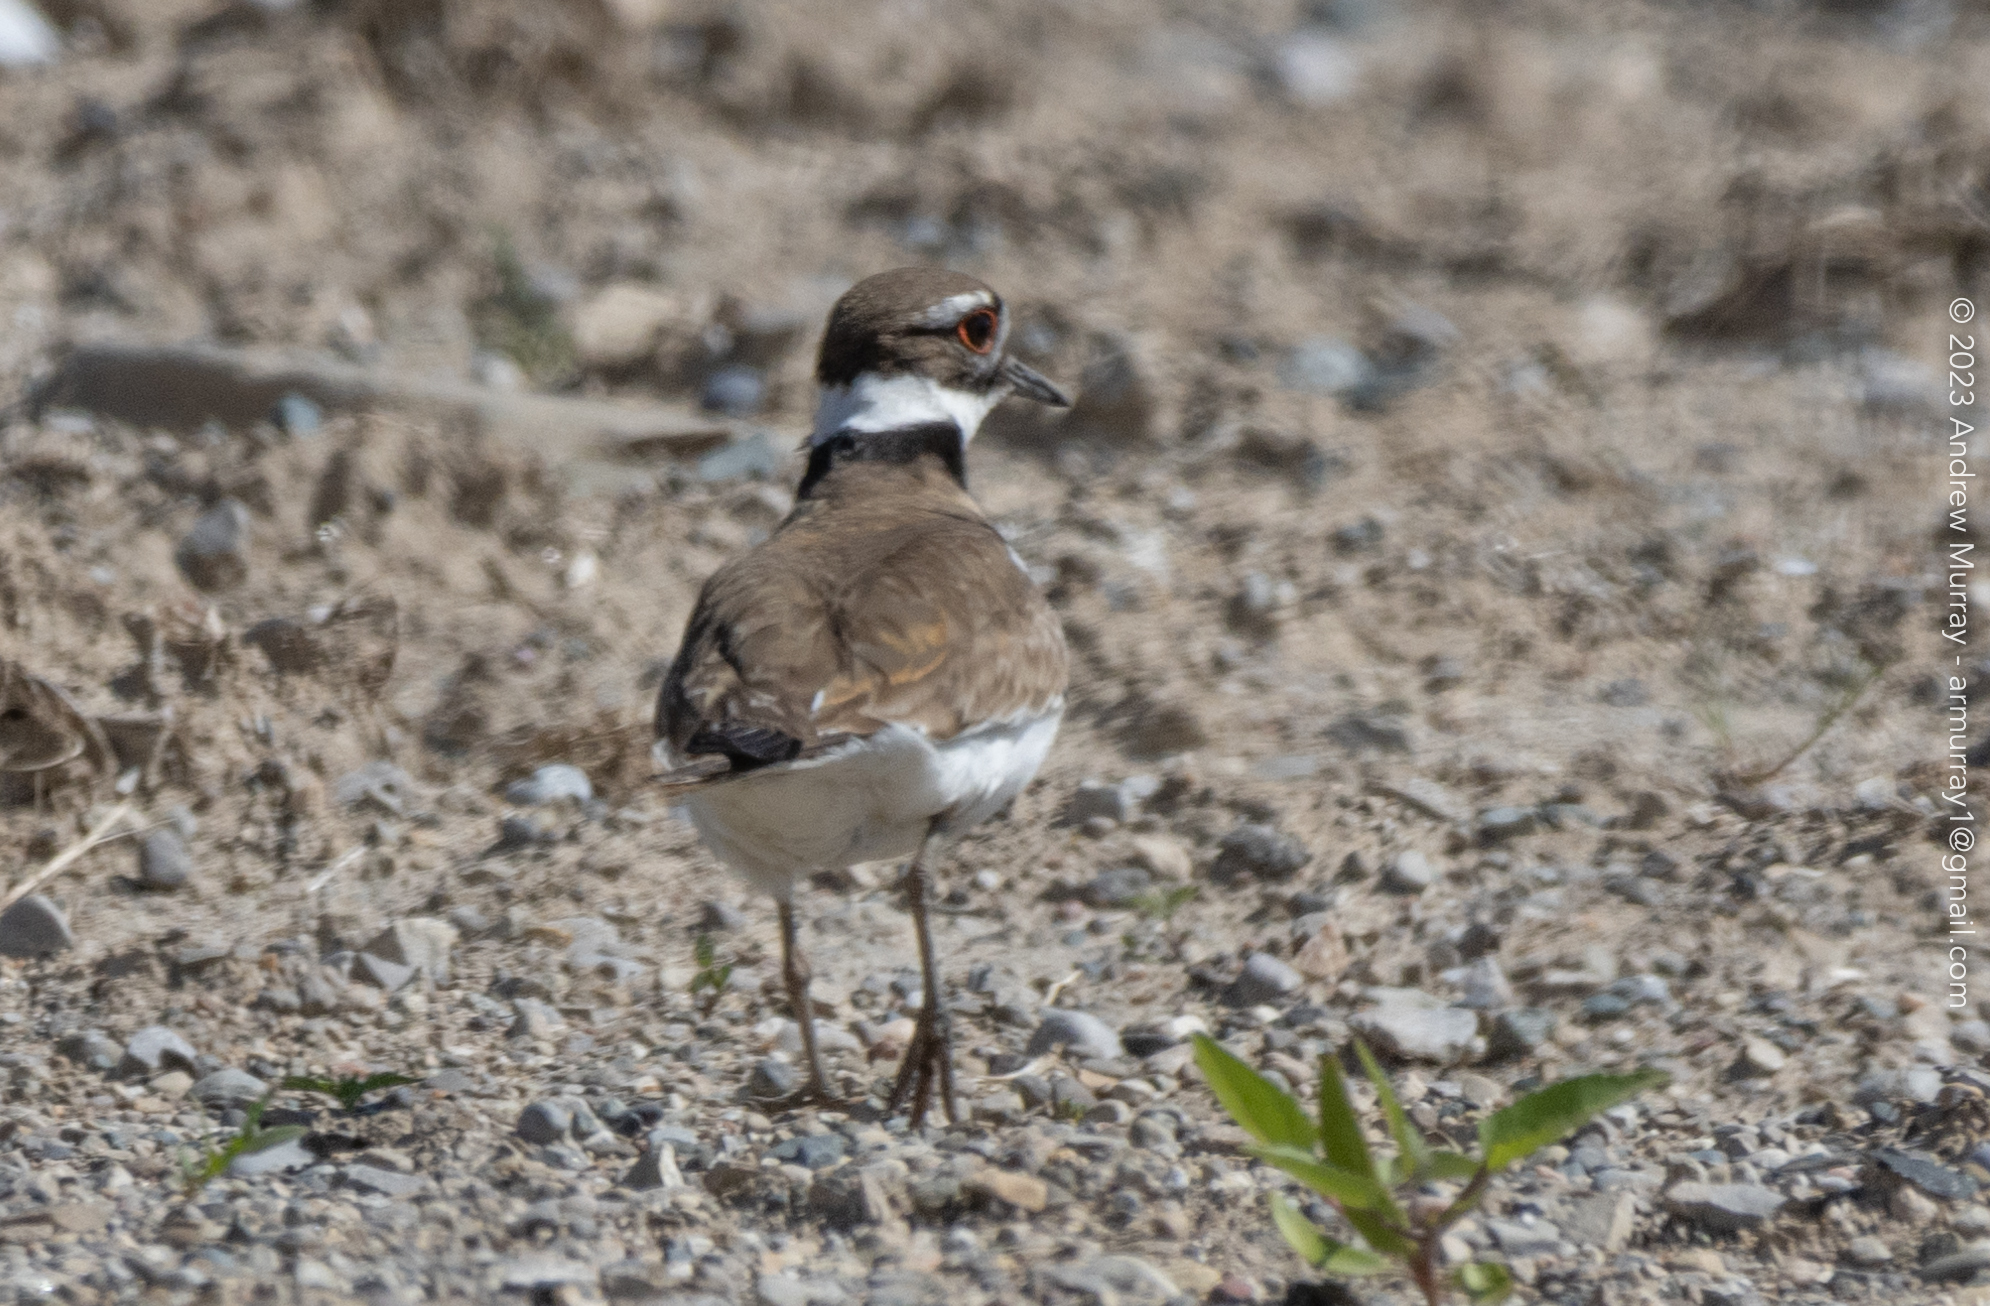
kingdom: Animalia
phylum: Chordata
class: Aves
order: Charadriiformes
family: Charadriidae
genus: Charadrius
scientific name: Charadrius vociferus
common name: Killdeer
